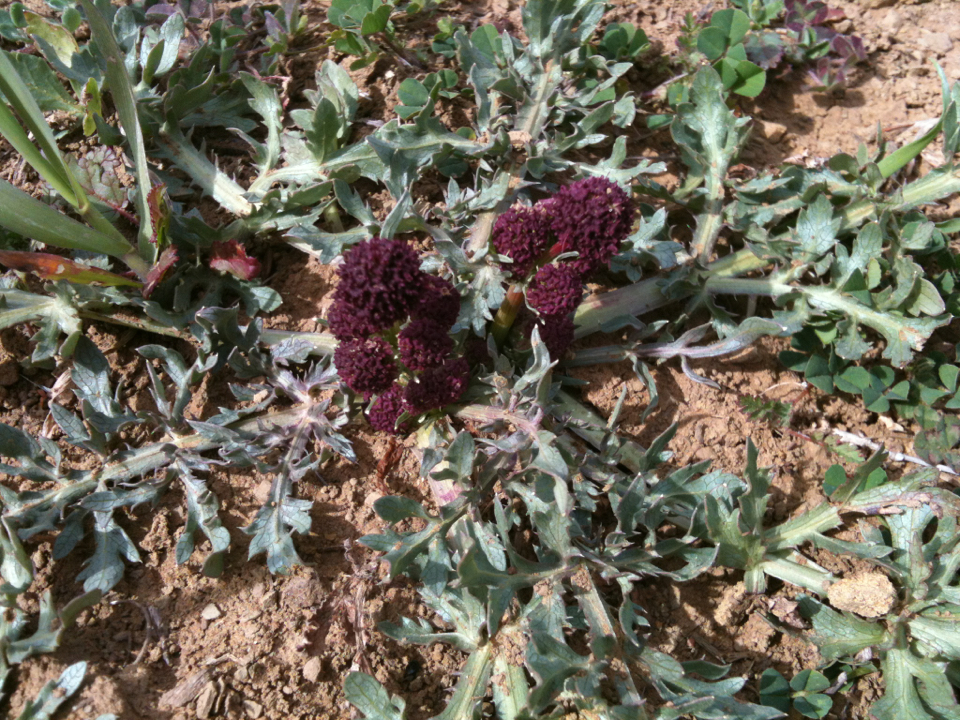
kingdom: Plantae
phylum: Tracheophyta
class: Magnoliopsida
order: Apiales
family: Apiaceae
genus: Sanicula
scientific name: Sanicula bipinnatifida
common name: Shoe-buttons
